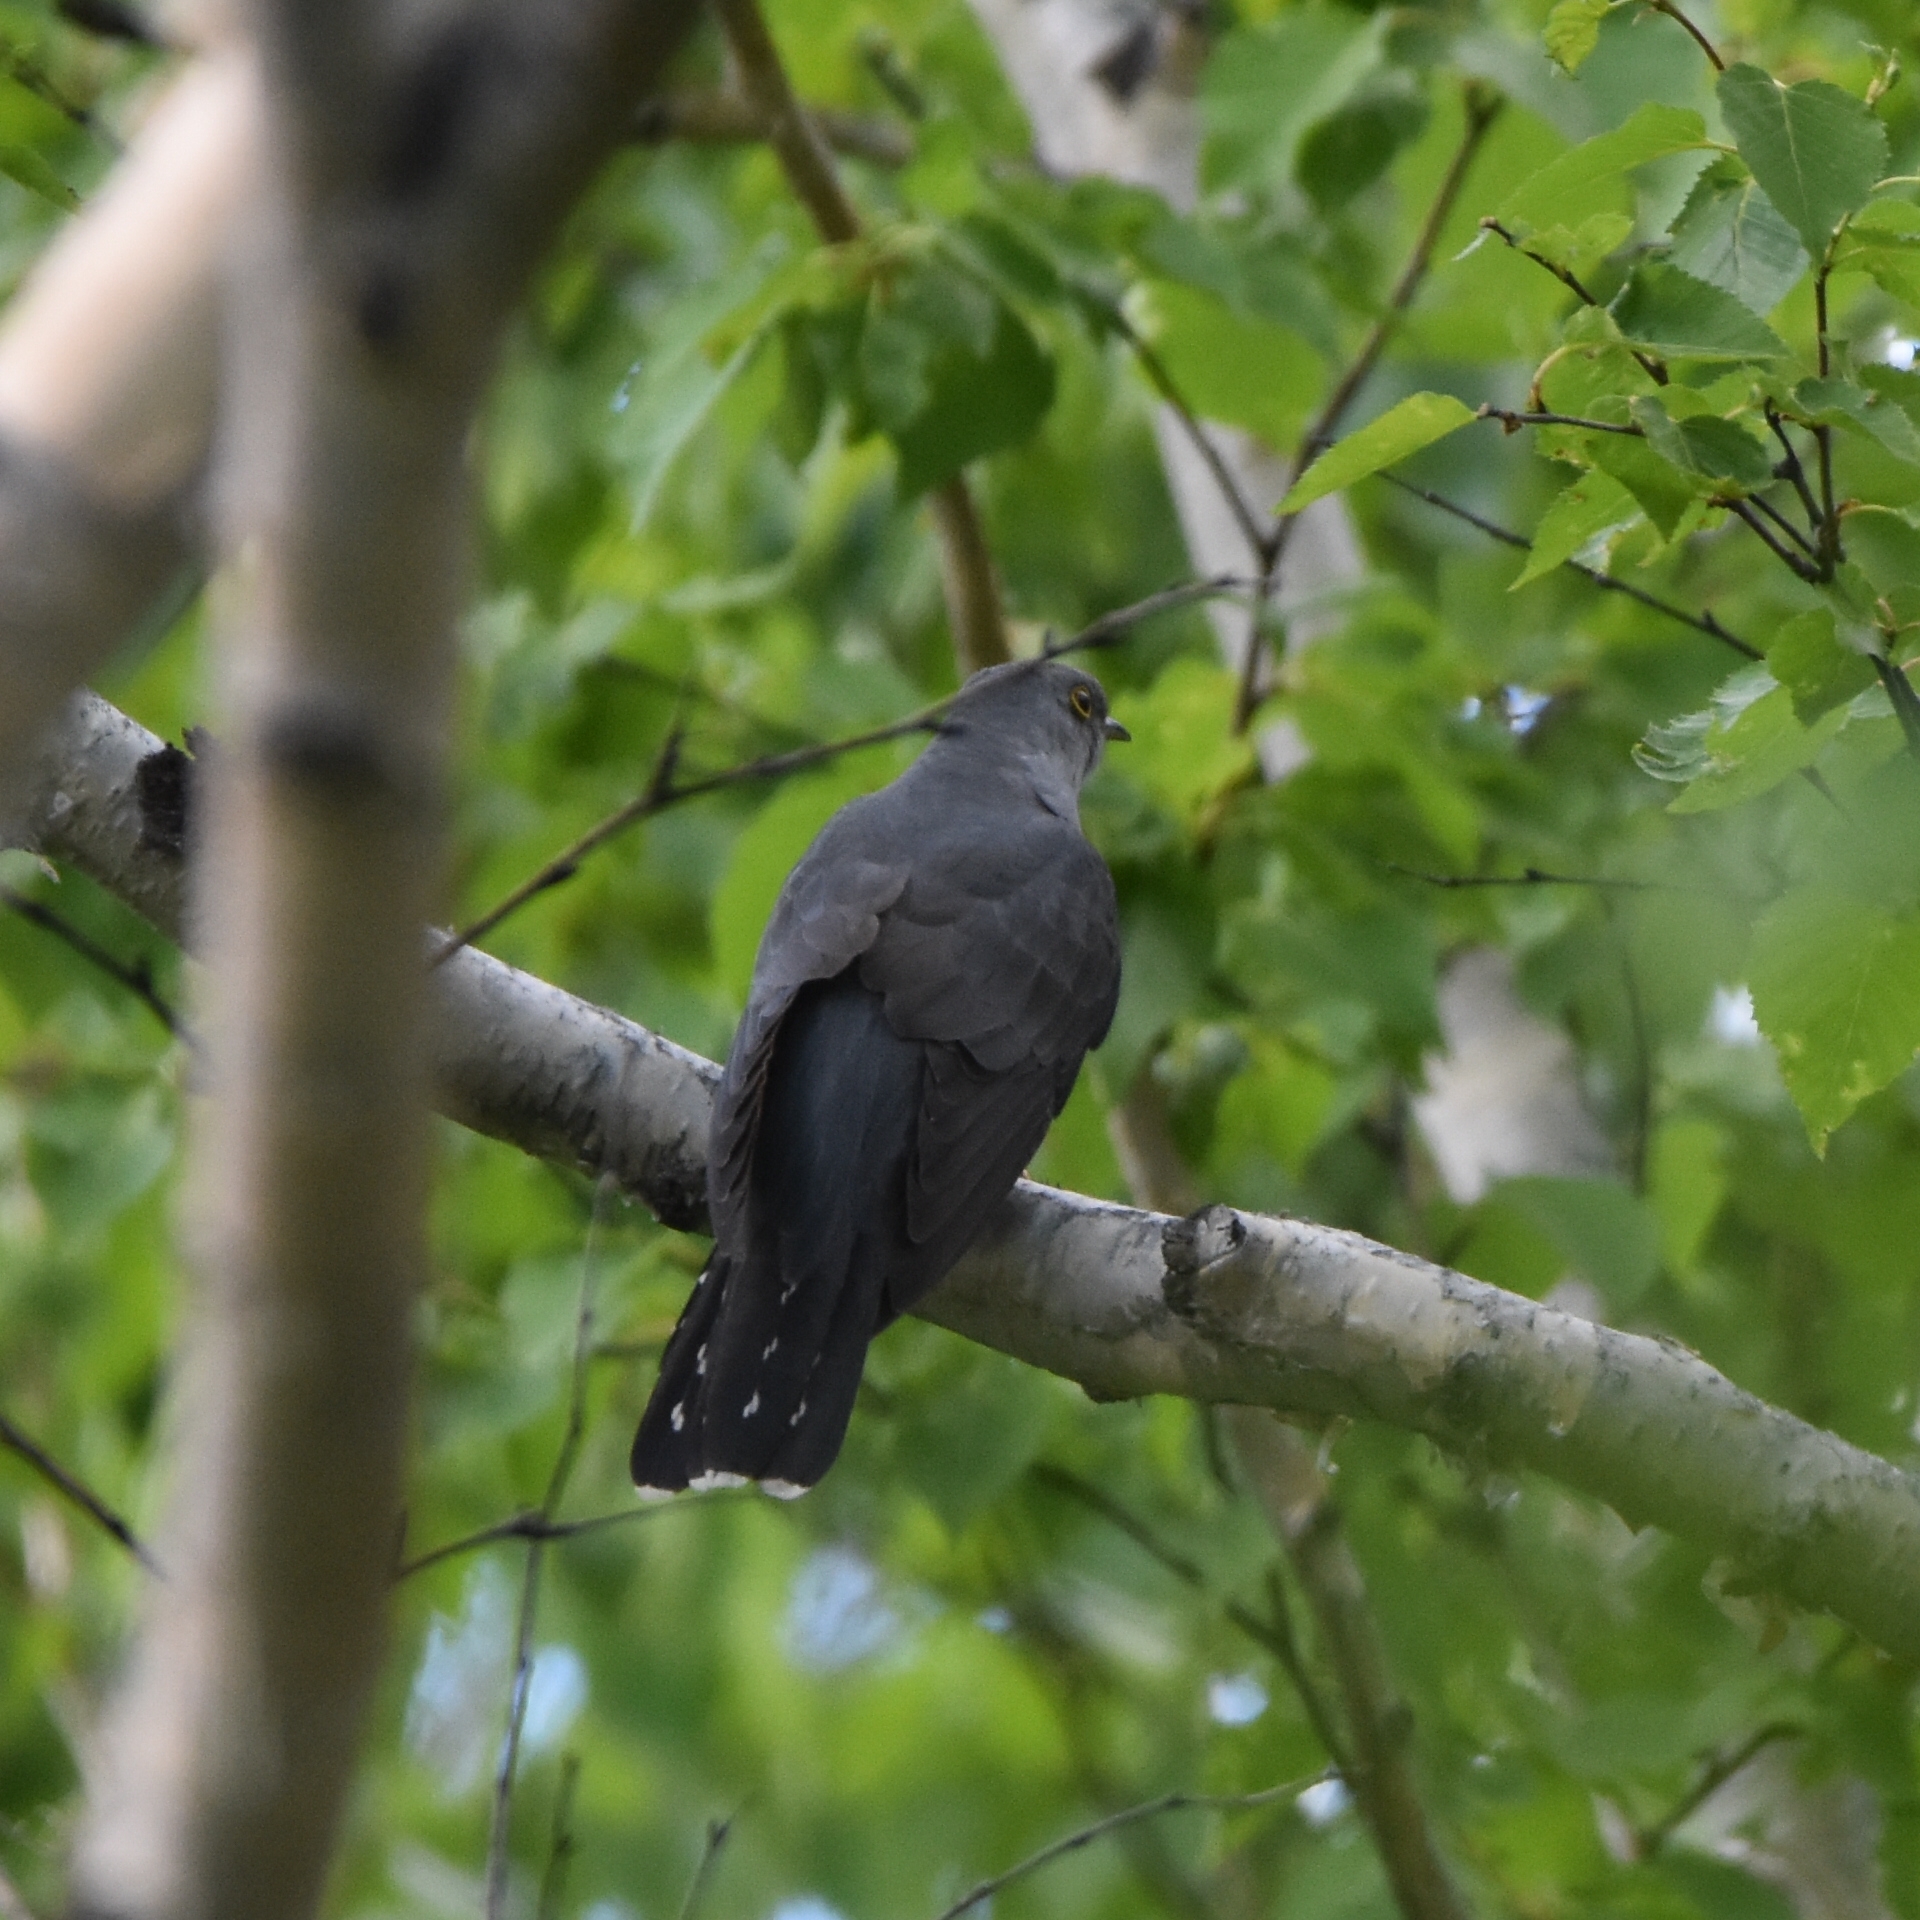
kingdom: Animalia
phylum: Chordata
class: Aves
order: Cuculiformes
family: Cuculidae
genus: Cuculus
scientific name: Cuculus optatus
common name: Oriental cuckoo
